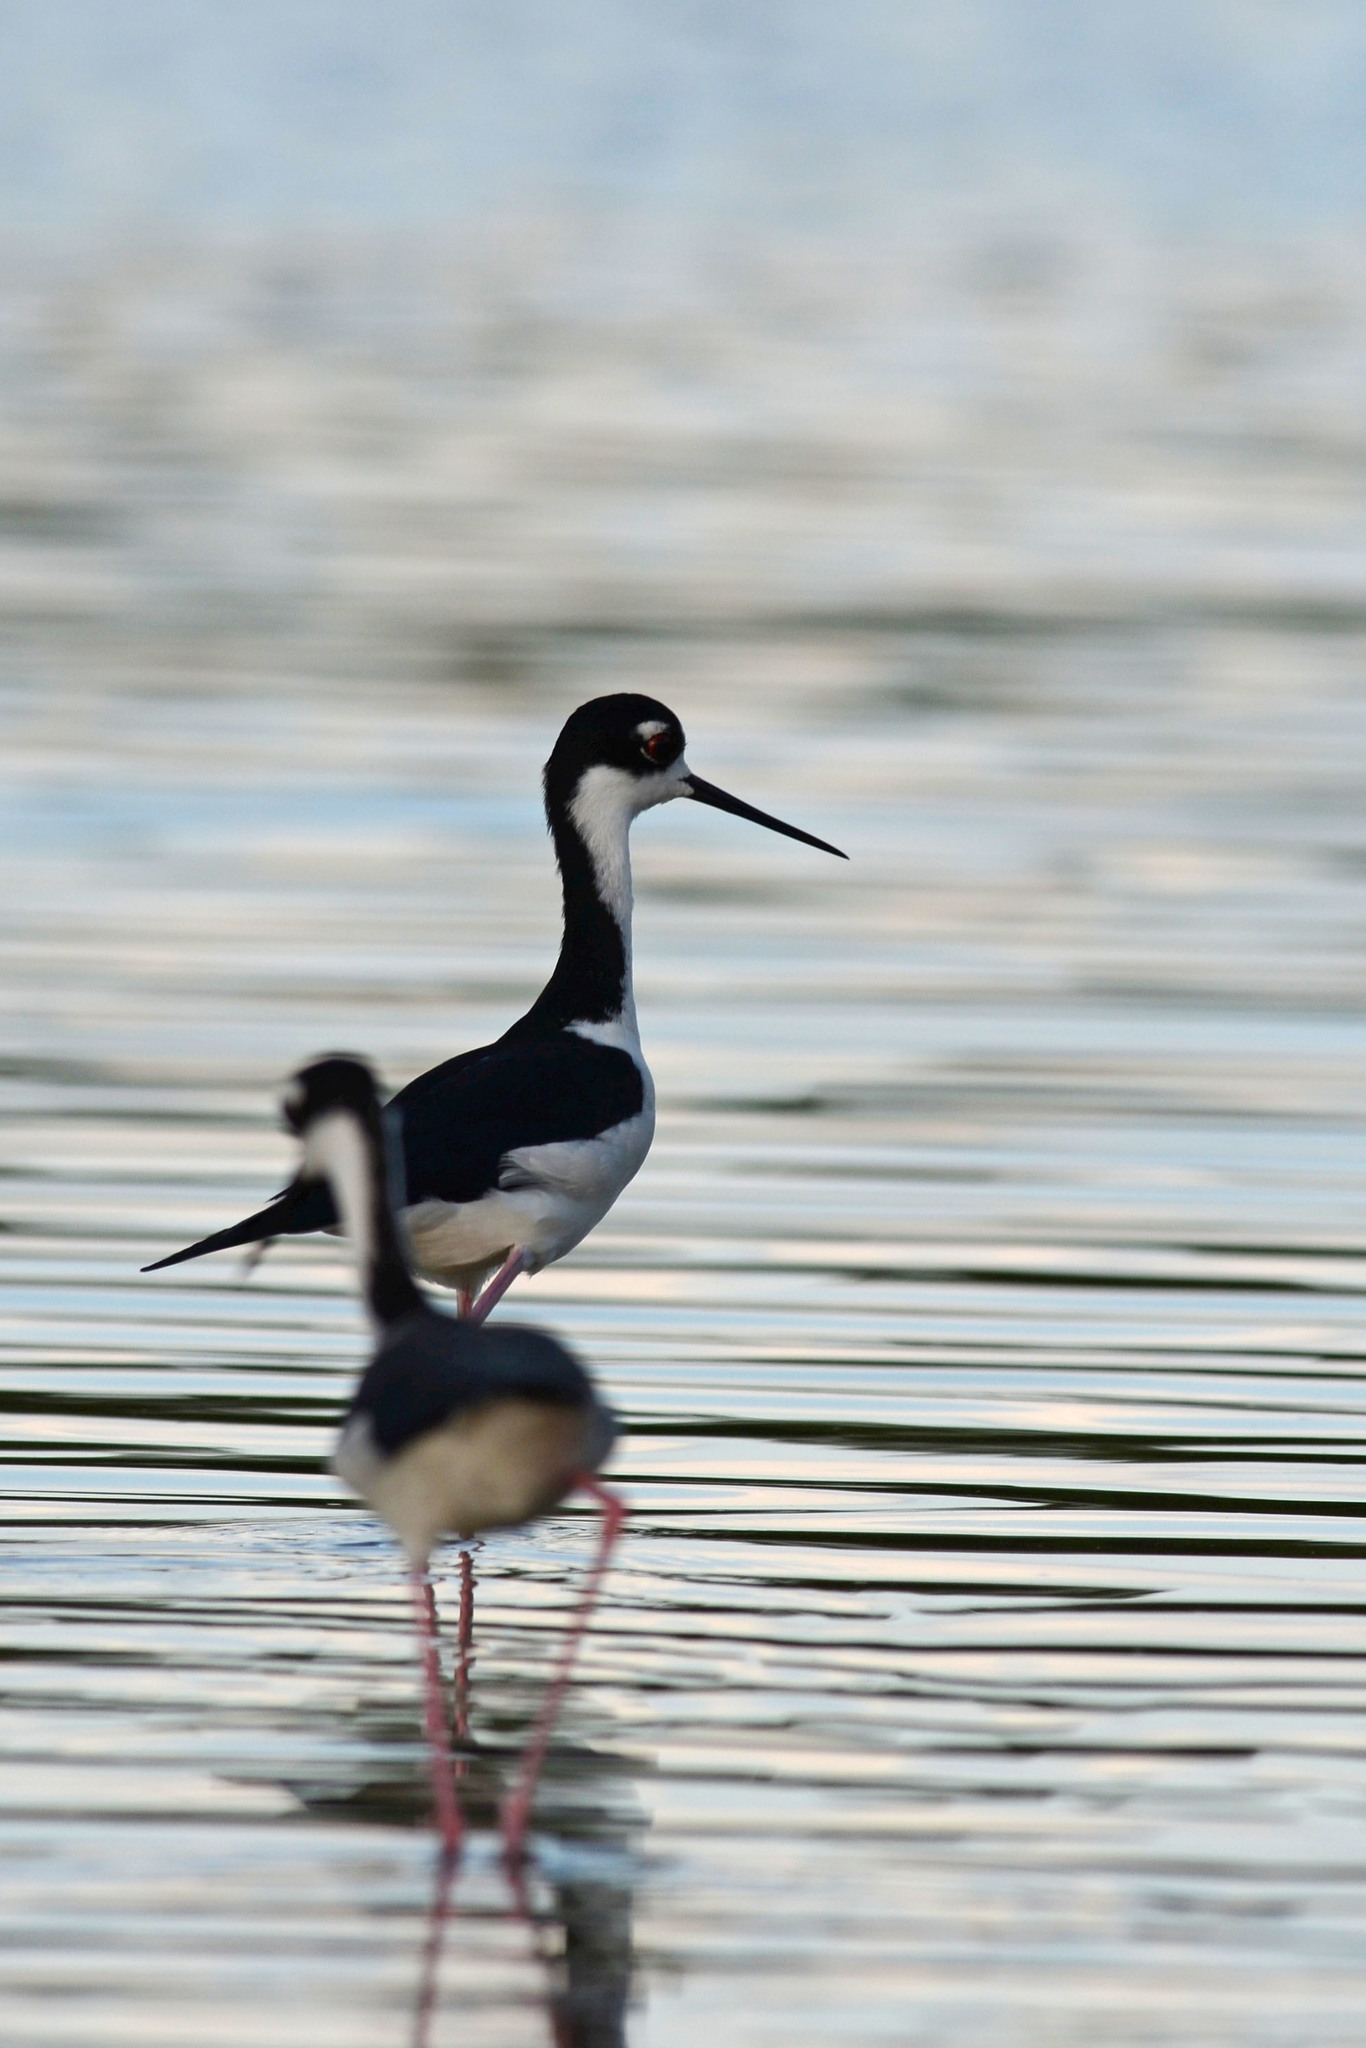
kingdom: Animalia
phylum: Chordata
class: Aves
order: Charadriiformes
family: Recurvirostridae
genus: Himantopus
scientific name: Himantopus mexicanus
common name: Black-necked stilt
